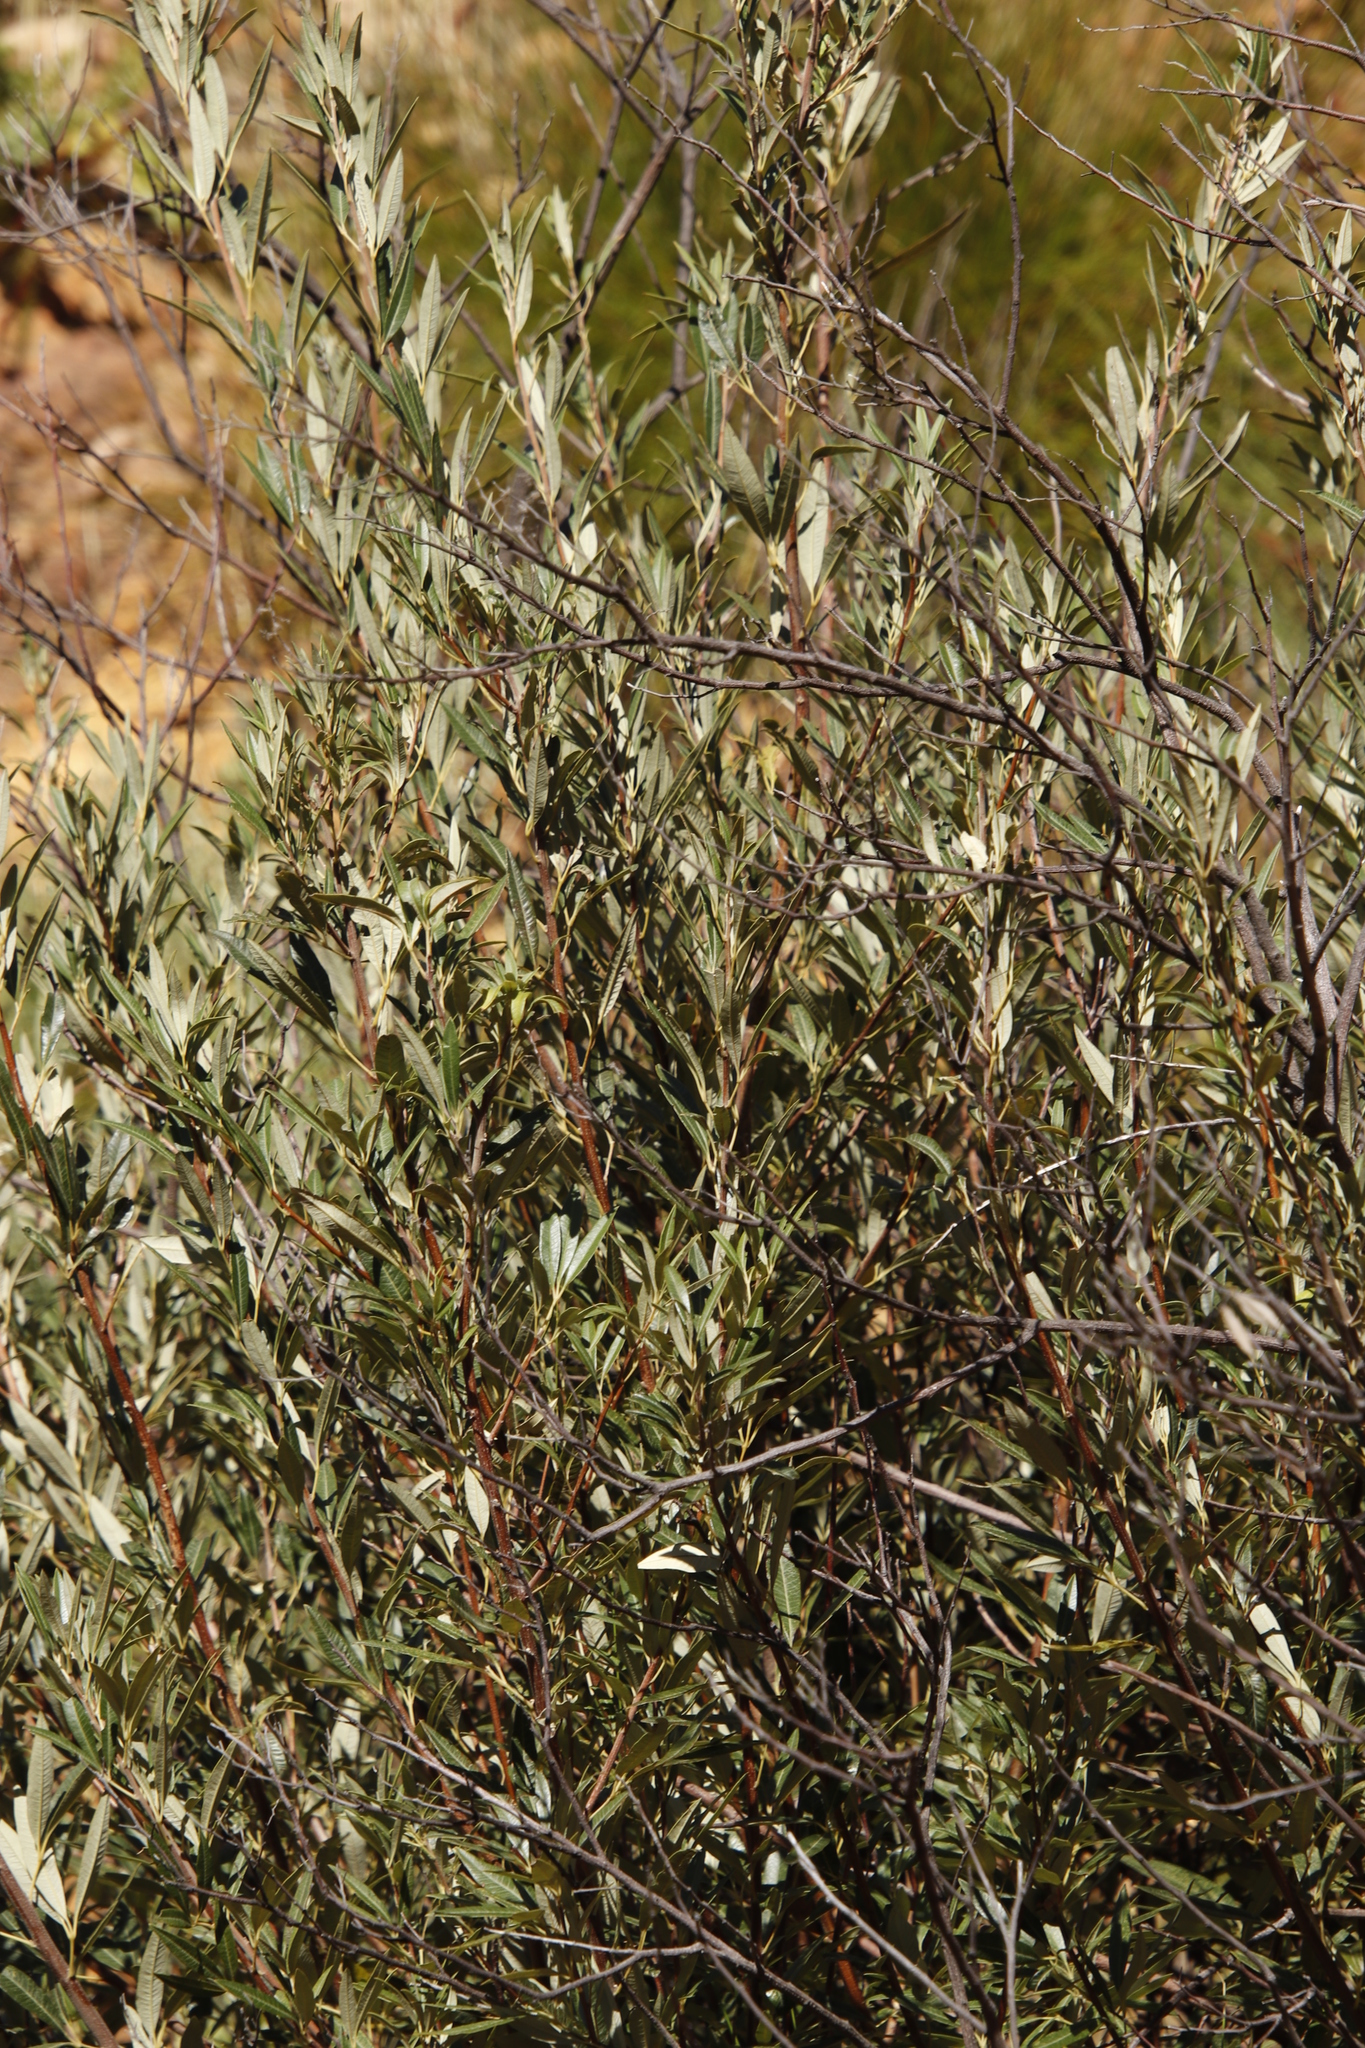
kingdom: Plantae
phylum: Tracheophyta
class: Magnoliopsida
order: Sapindales
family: Anacardiaceae
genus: Searsia
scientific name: Searsia angustifolia
